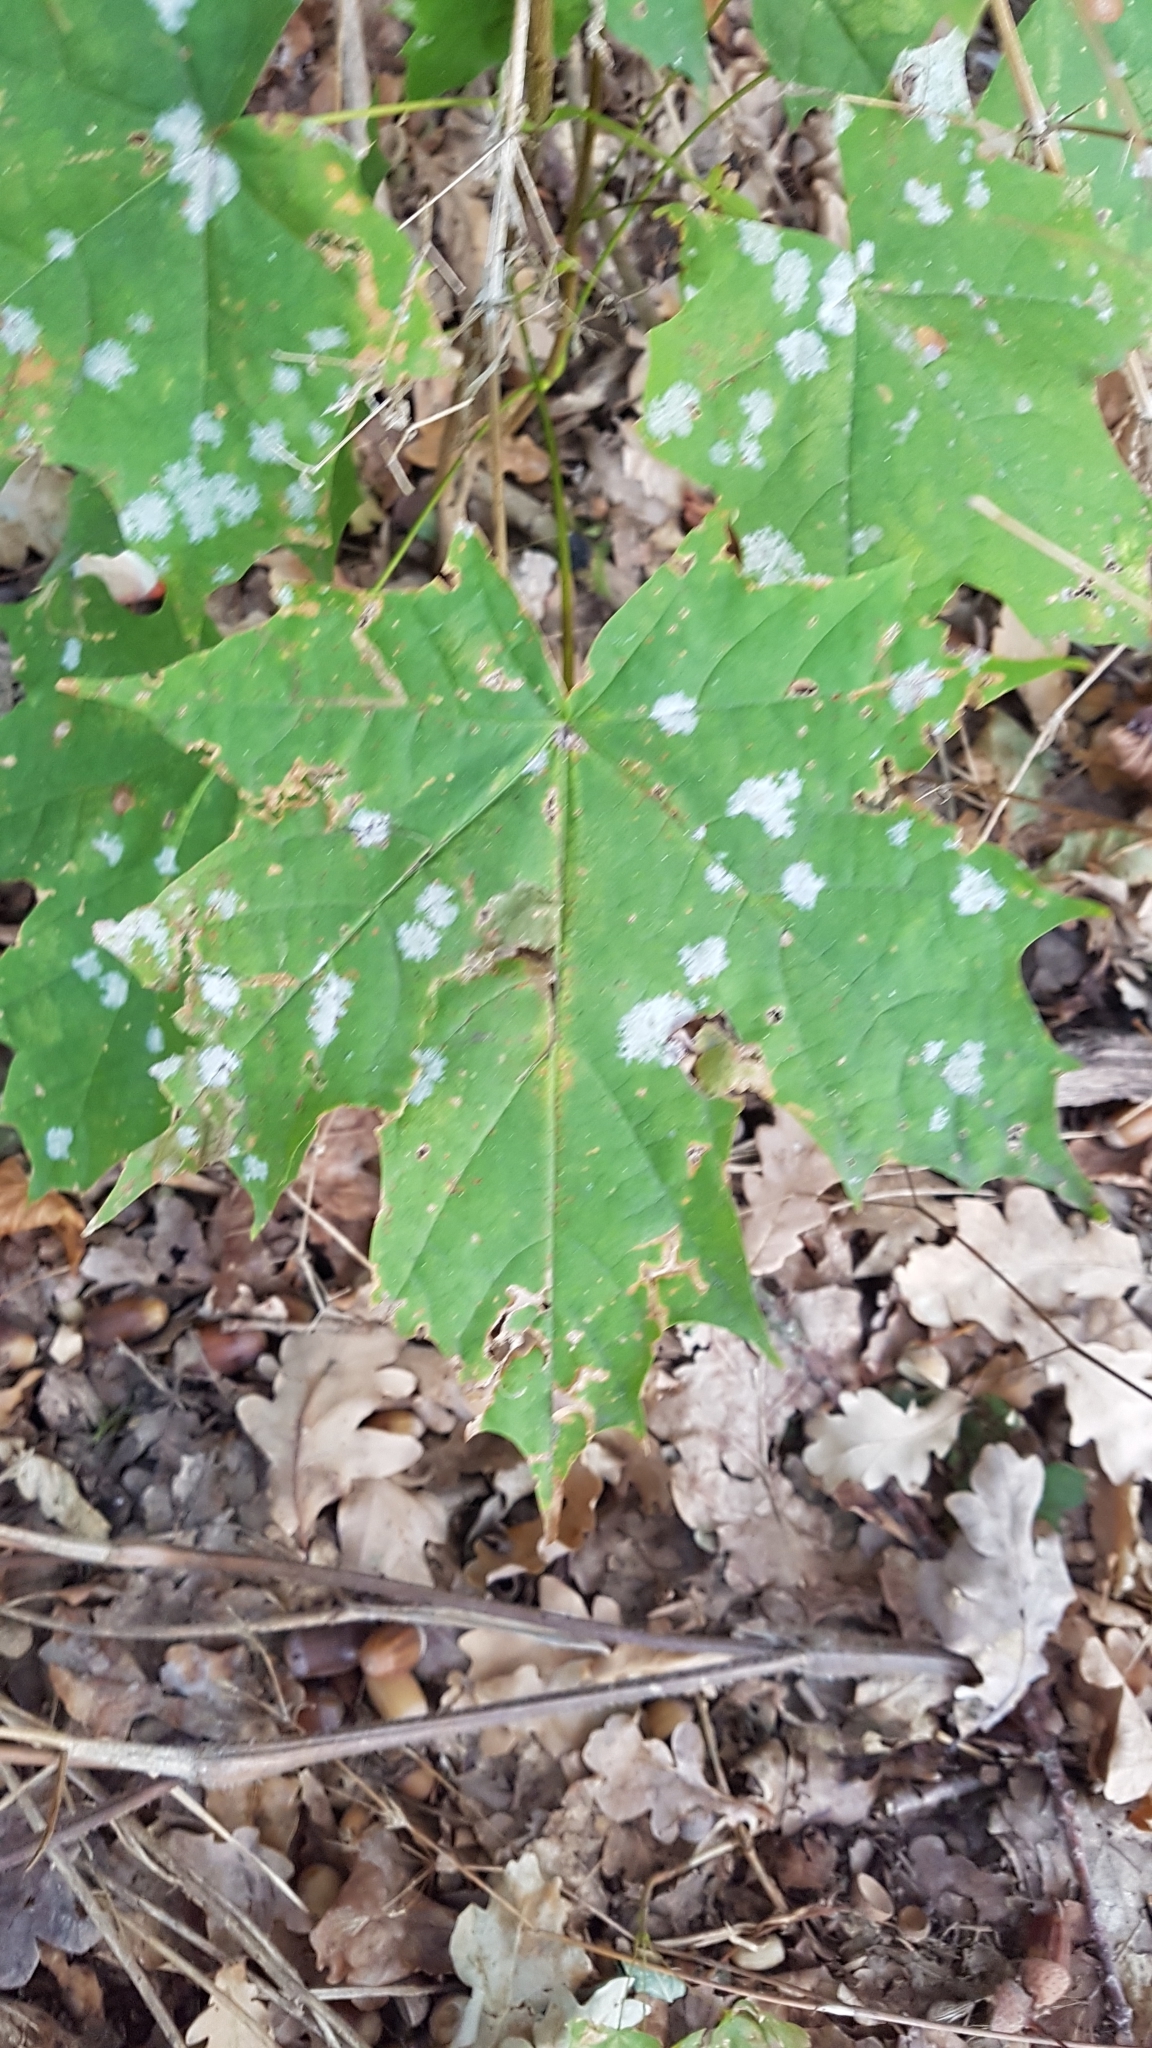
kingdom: Plantae
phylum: Tracheophyta
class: Magnoliopsida
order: Sapindales
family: Sapindaceae
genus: Acer
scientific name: Acer platanoides
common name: Norway maple
